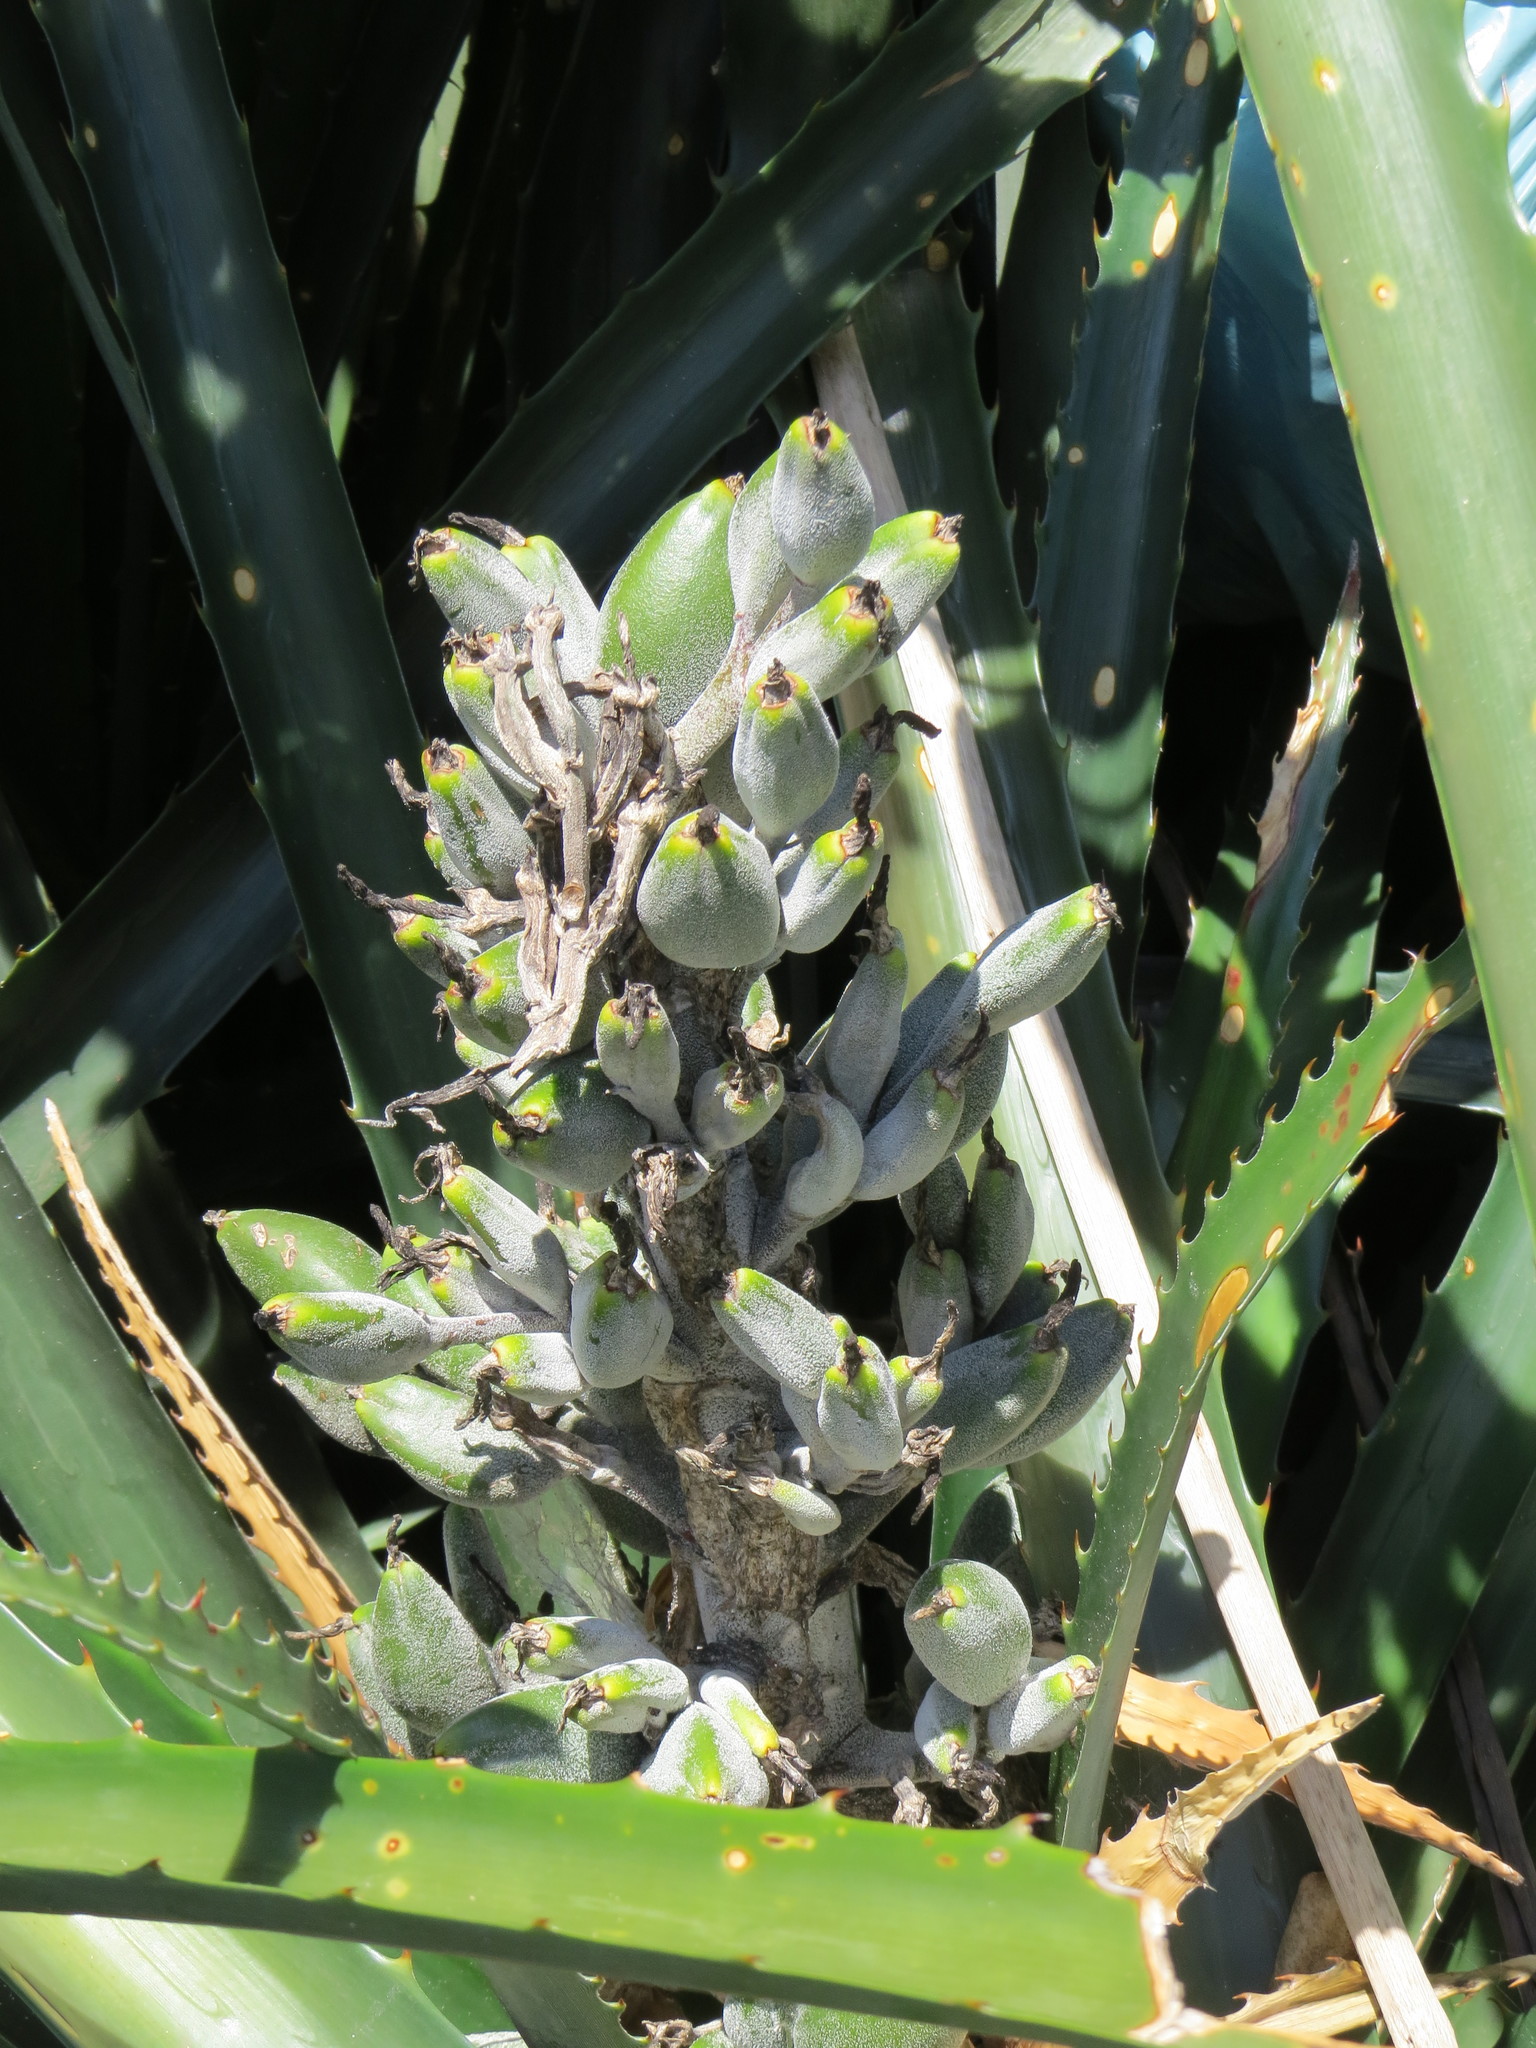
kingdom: Plantae
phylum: Tracheophyta
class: Liliopsida
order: Poales
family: Bromeliaceae
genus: Bromelia
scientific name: Bromelia antiacantha
